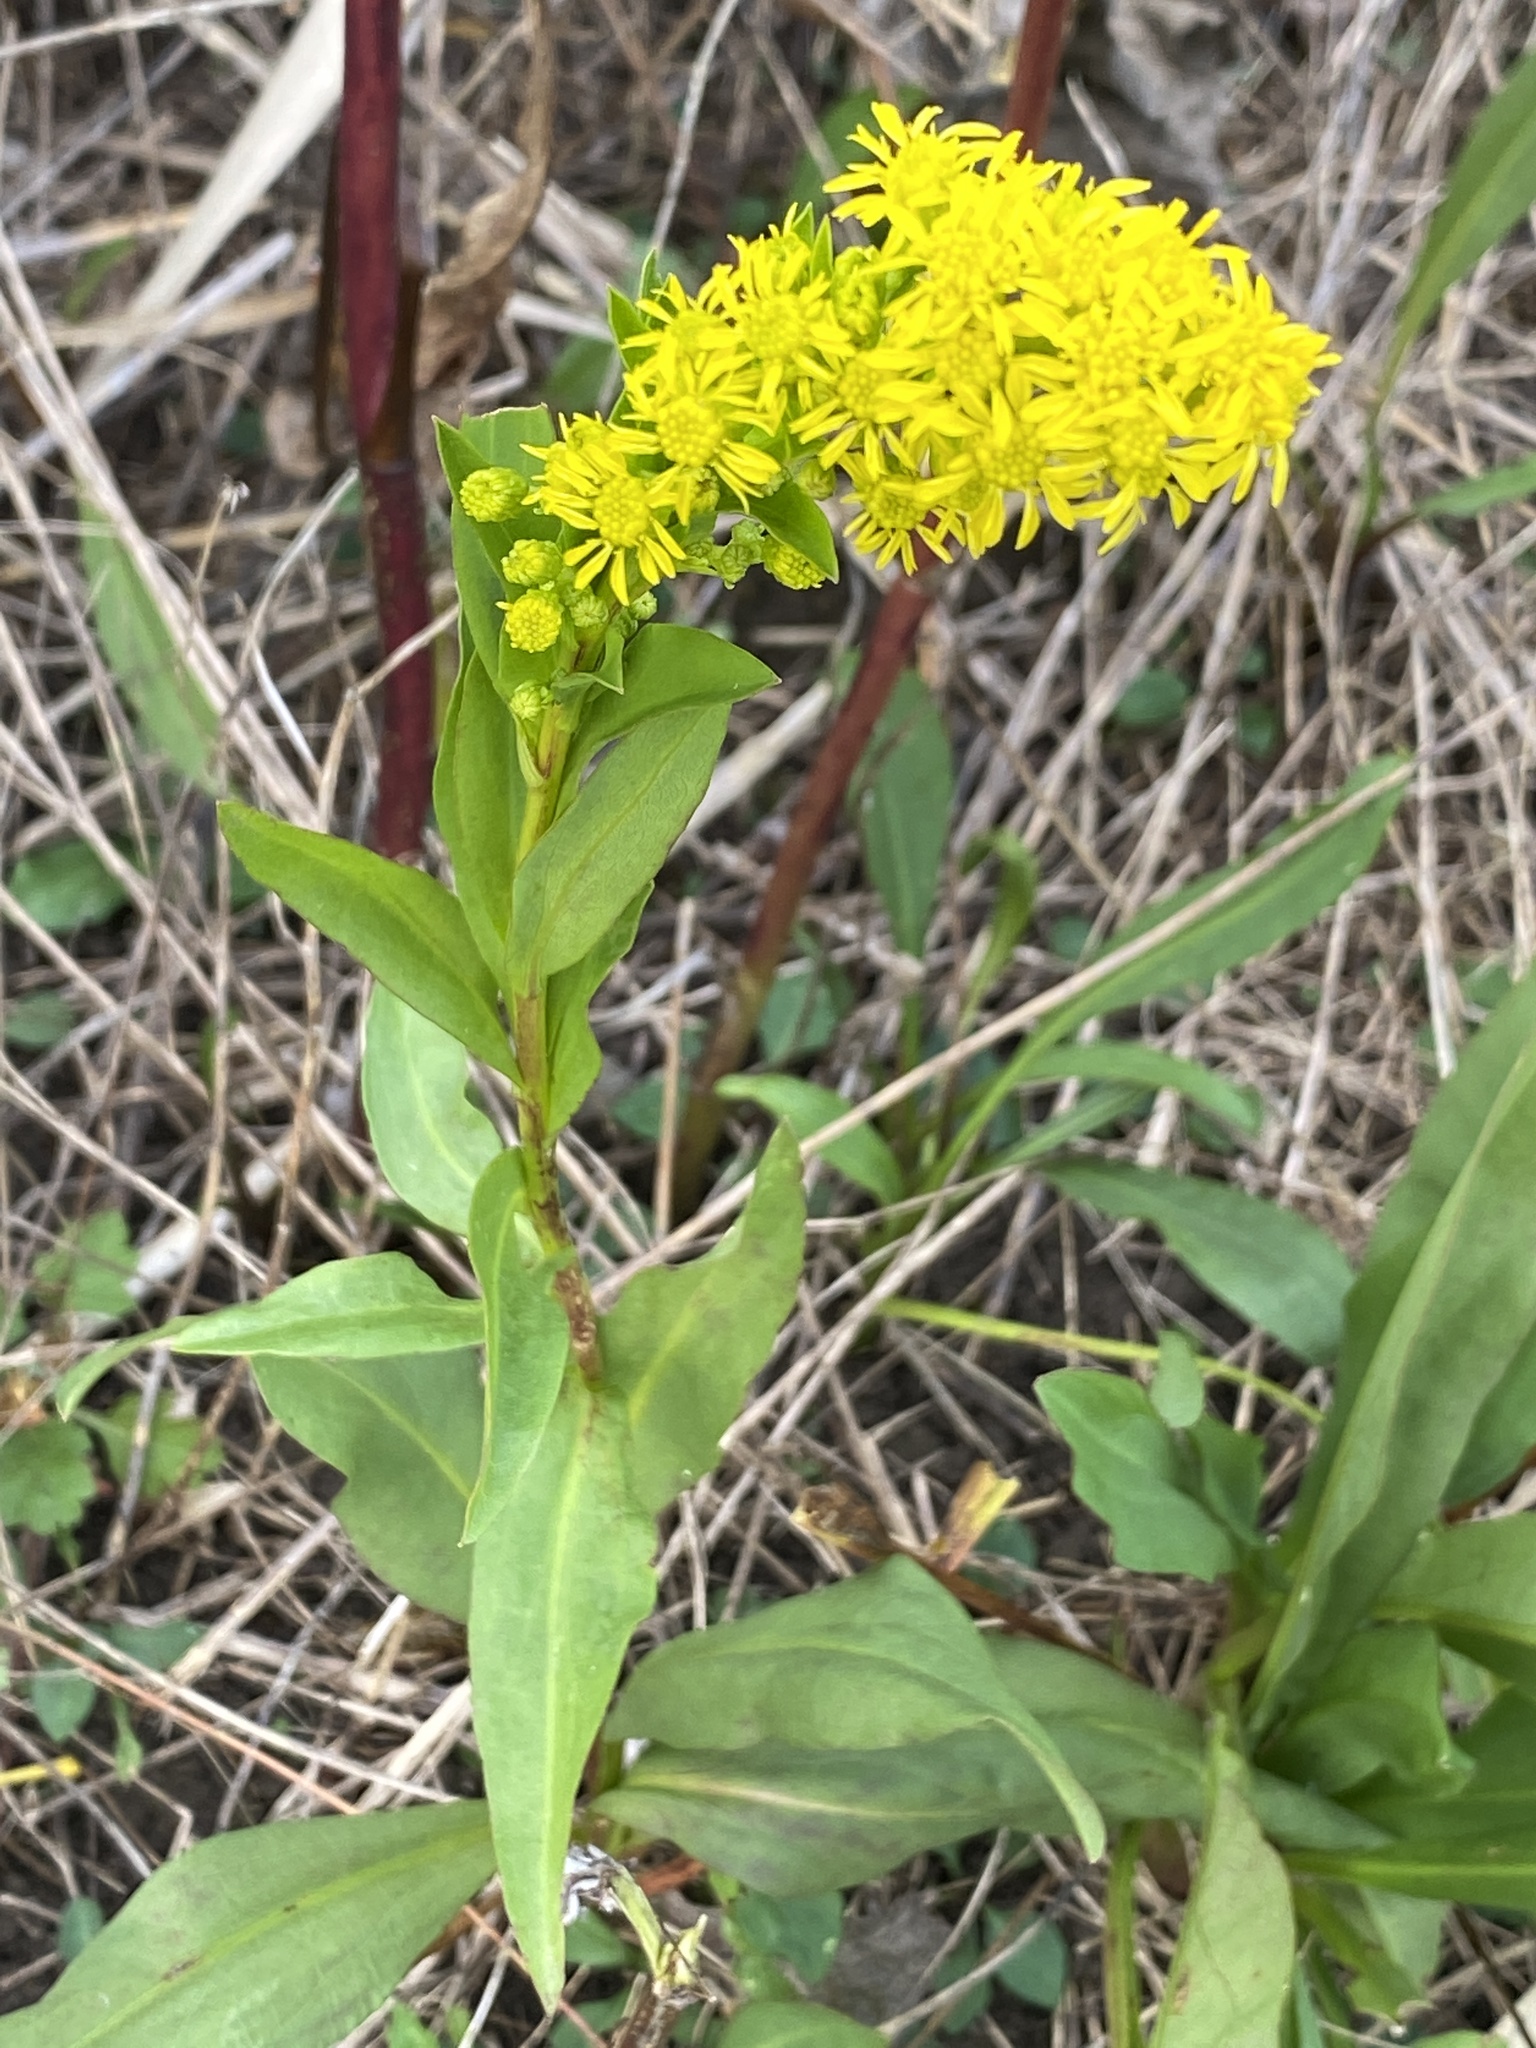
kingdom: Plantae
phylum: Tracheophyta
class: Magnoliopsida
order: Asterales
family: Asteraceae
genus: Solidago
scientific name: Solidago sempervirens
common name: Salt-marsh goldenrod
